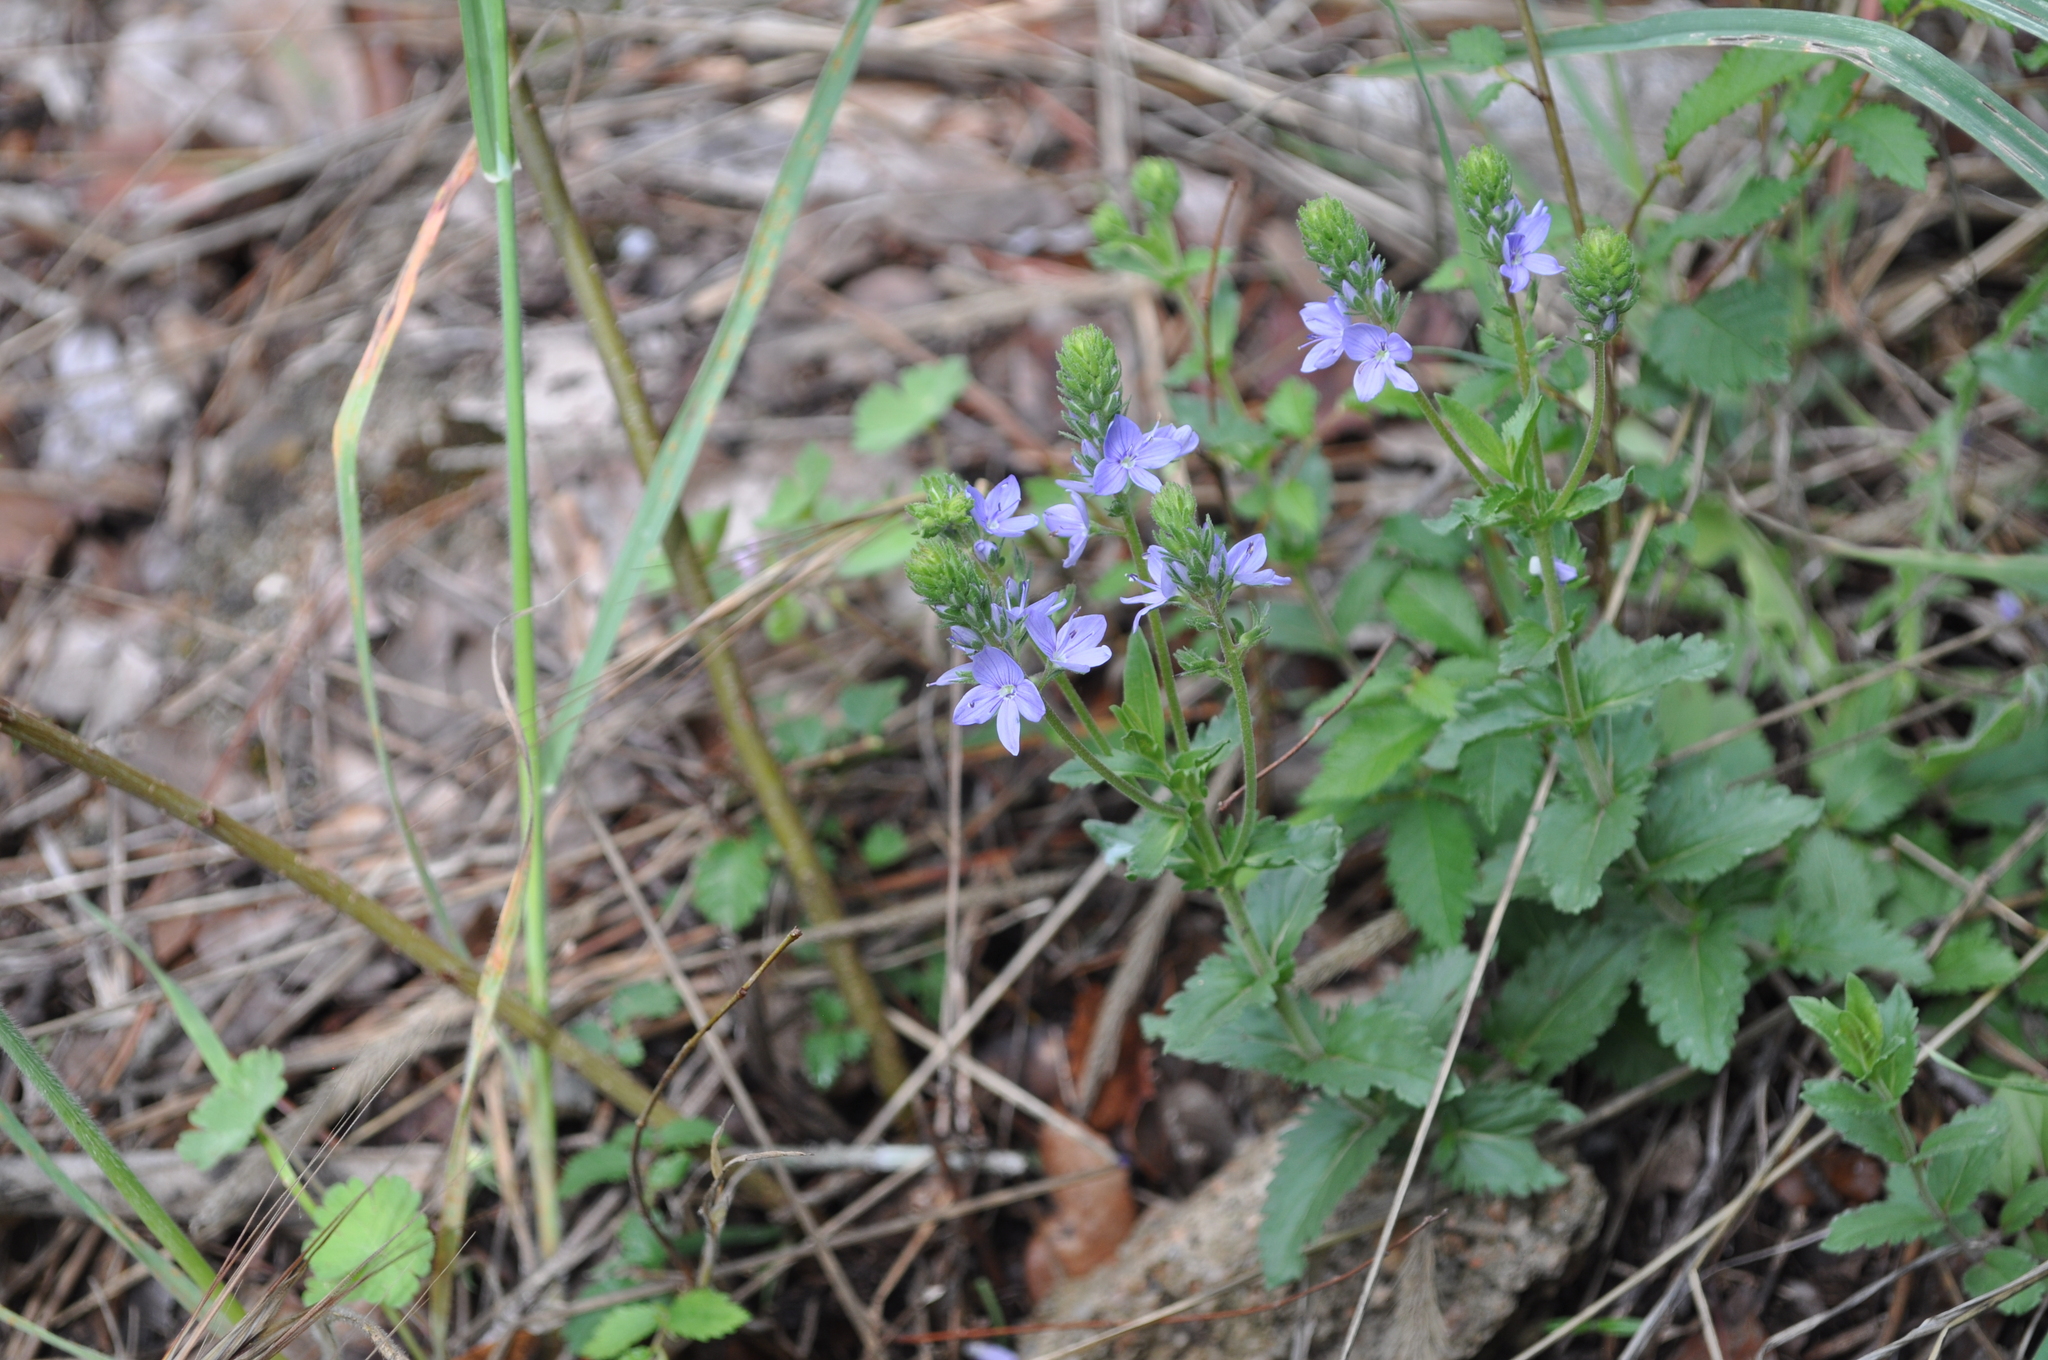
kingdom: Plantae
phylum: Tracheophyta
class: Magnoliopsida
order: Lamiales
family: Plantaginaceae
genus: Veronica
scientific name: Veronica orsiniana
